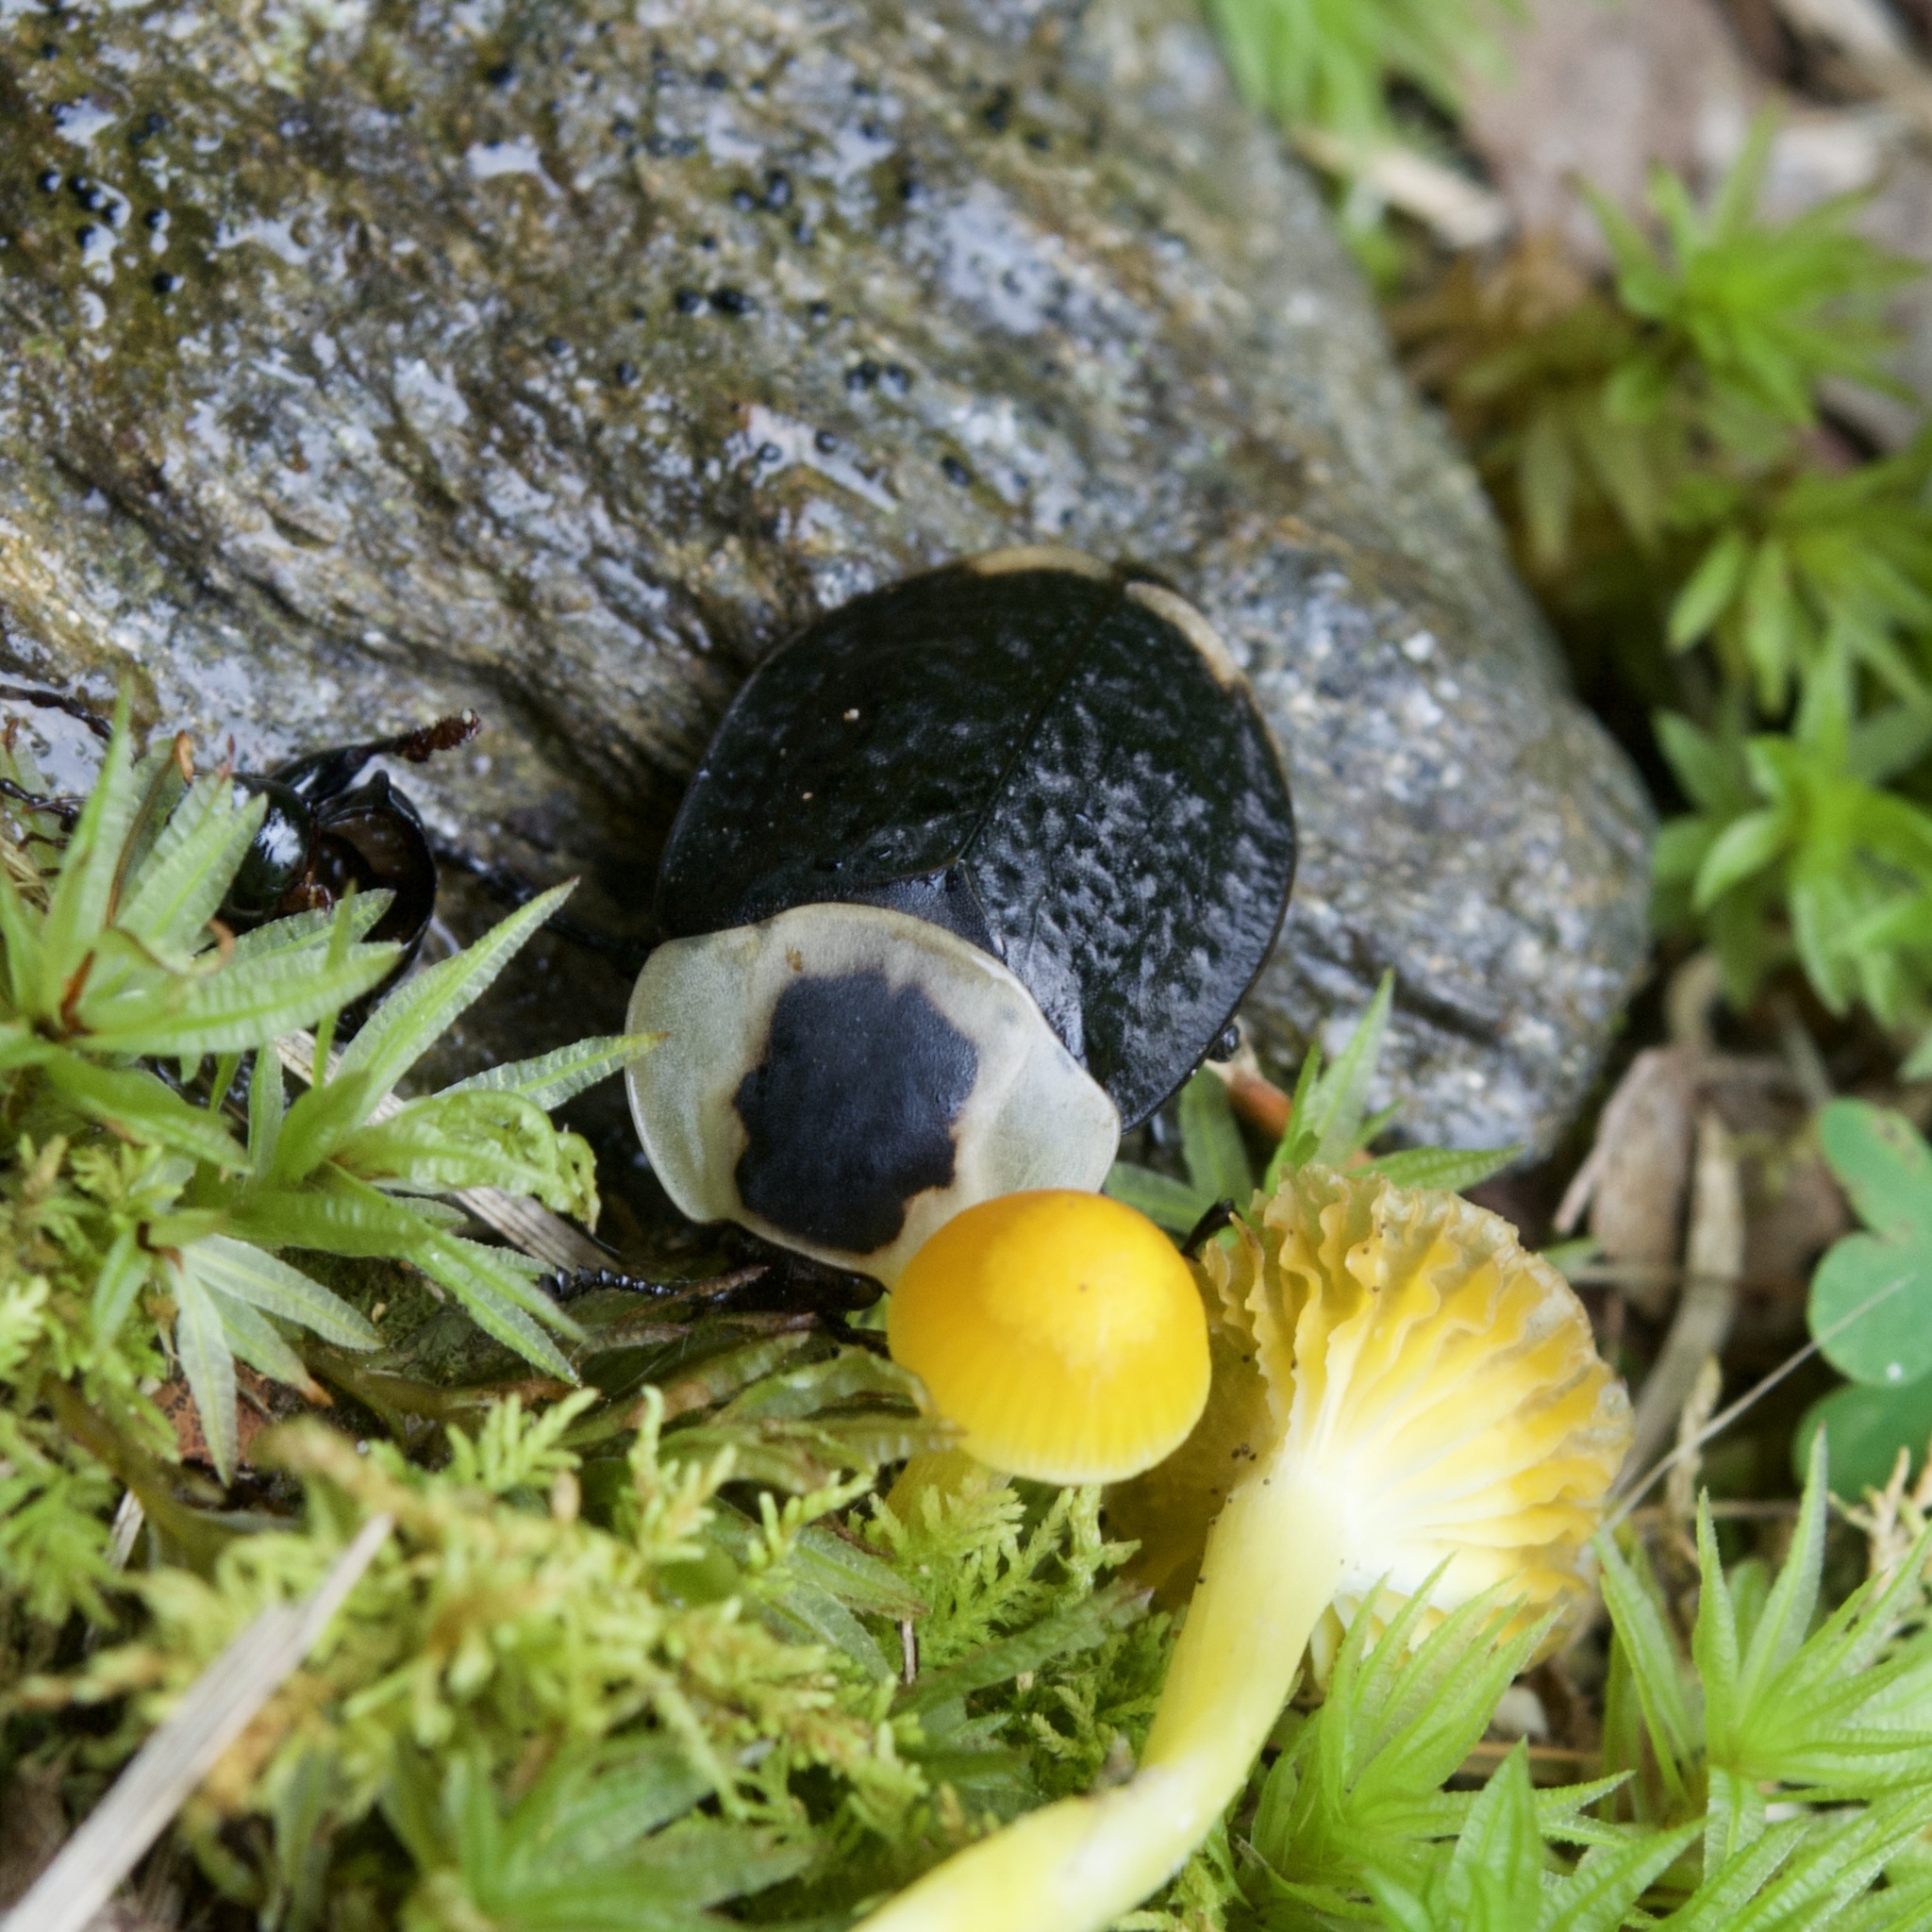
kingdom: Animalia
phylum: Arthropoda
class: Insecta
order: Coleoptera
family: Staphylinidae
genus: Necrophila
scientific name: Necrophila americana
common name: American carrion beetle
